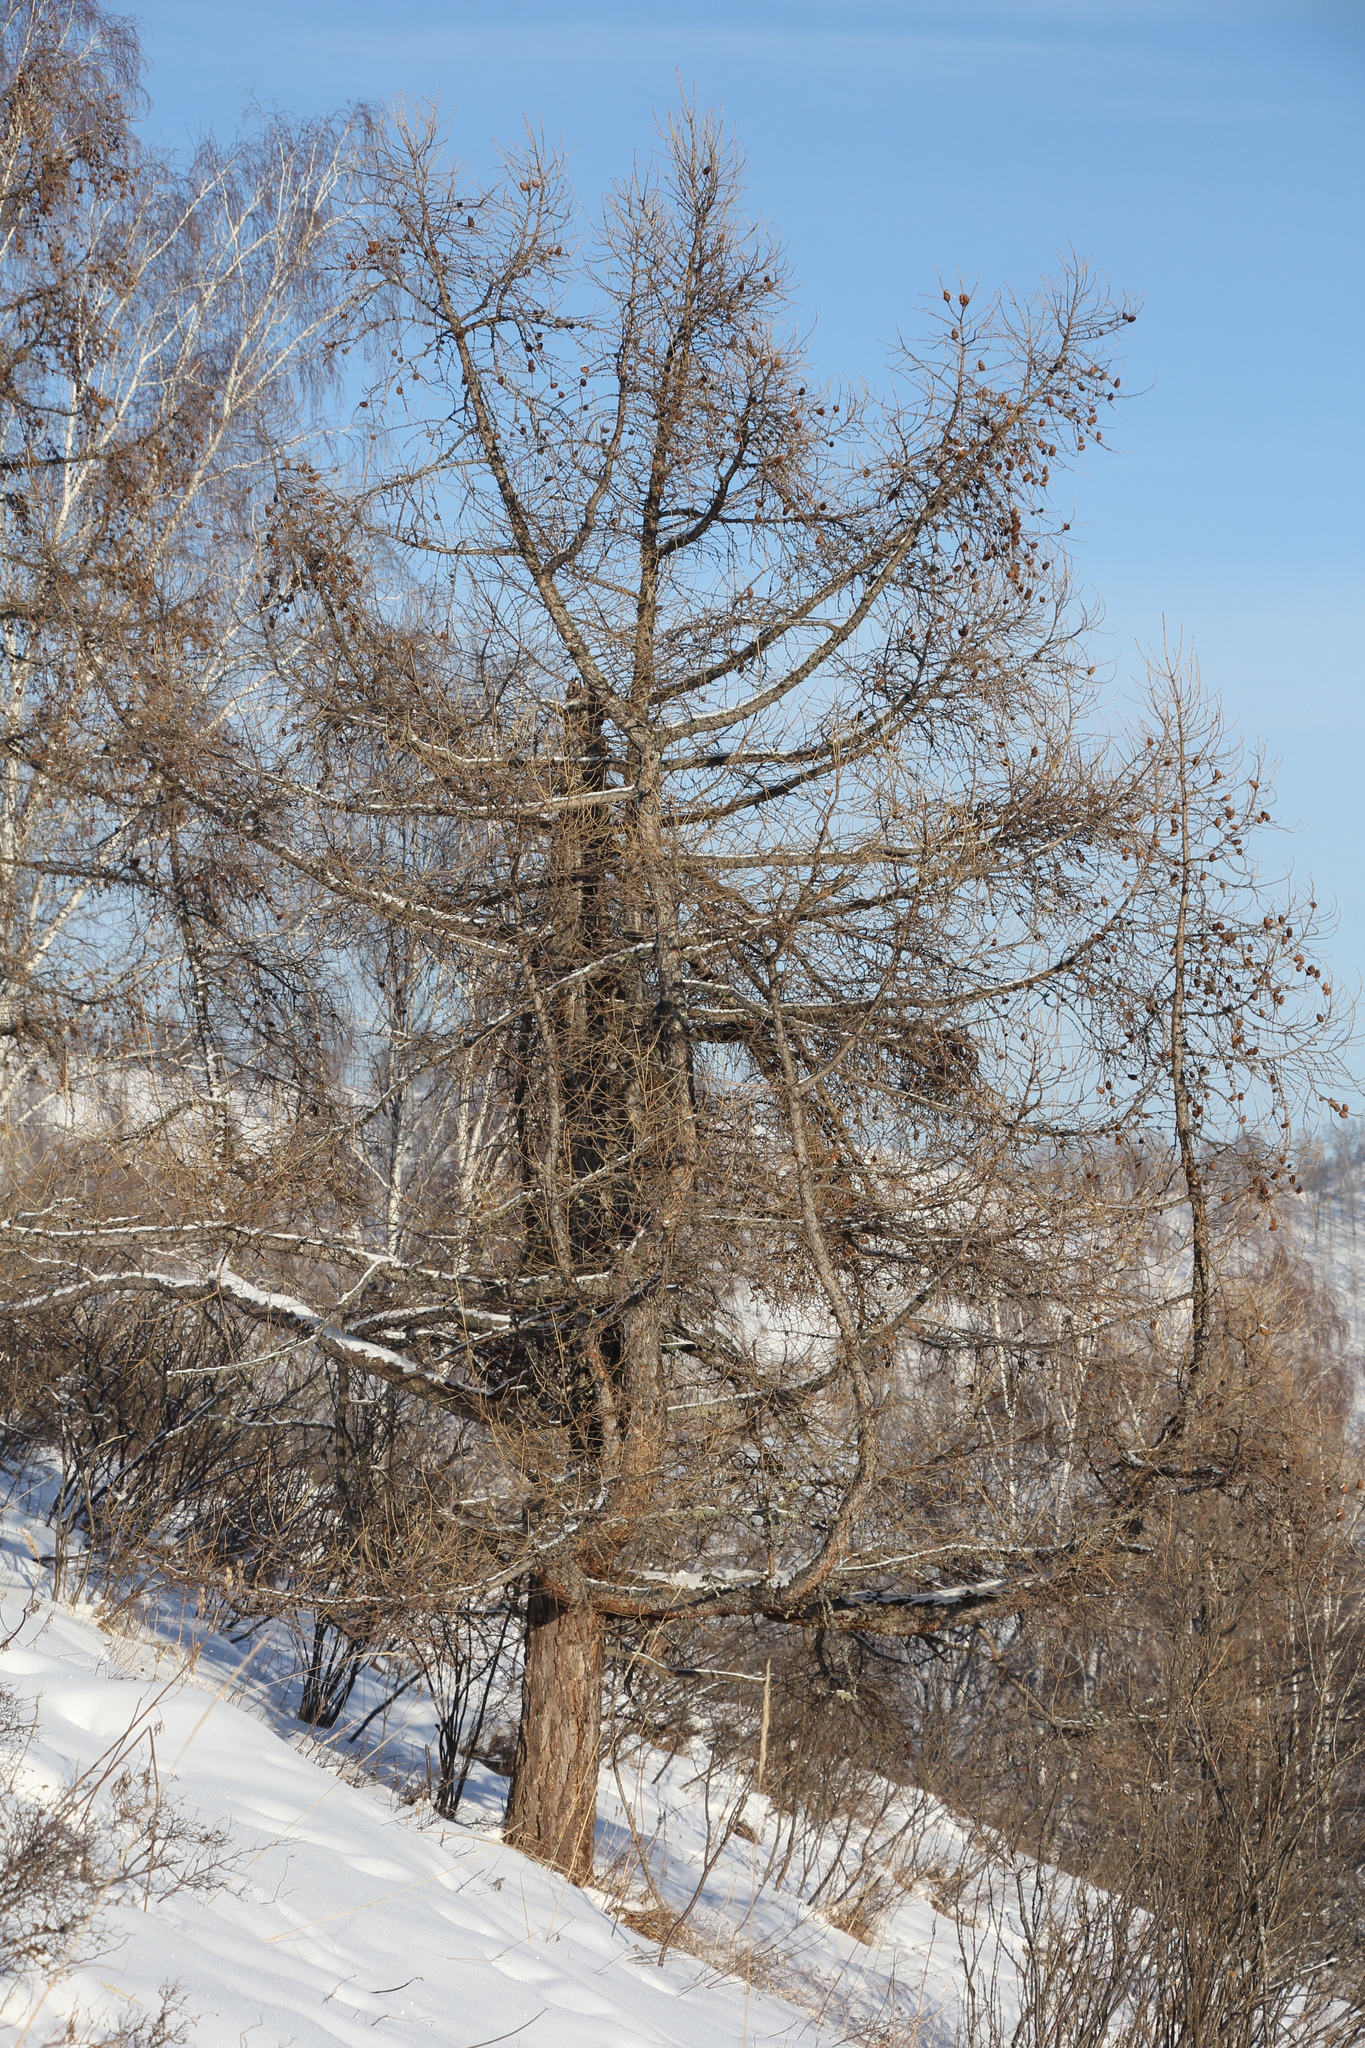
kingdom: Plantae
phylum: Tracheophyta
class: Pinopsida
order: Pinales
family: Pinaceae
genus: Larix
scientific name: Larix sibirica
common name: Siberian larch
